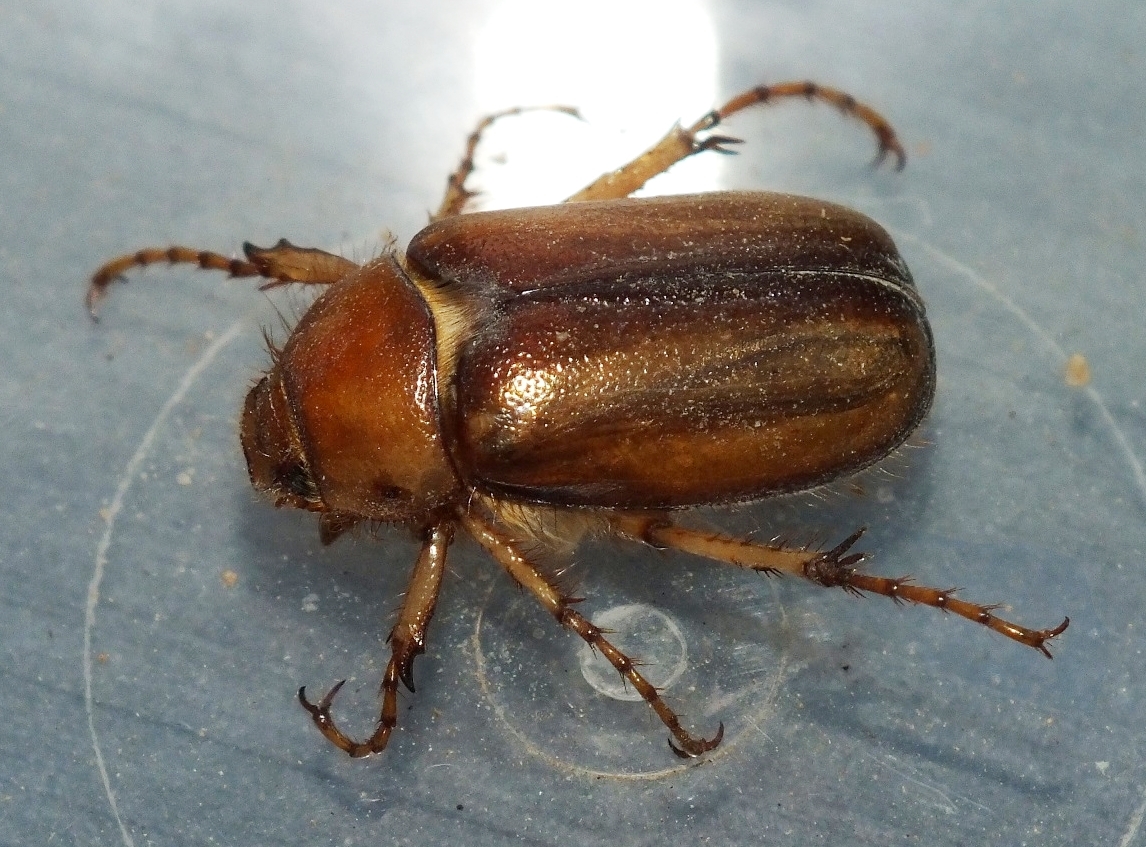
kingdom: Animalia
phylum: Arthropoda
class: Insecta
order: Coleoptera
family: Scarabaeidae
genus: Rhizotrogus
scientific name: Rhizotrogus aestivus
